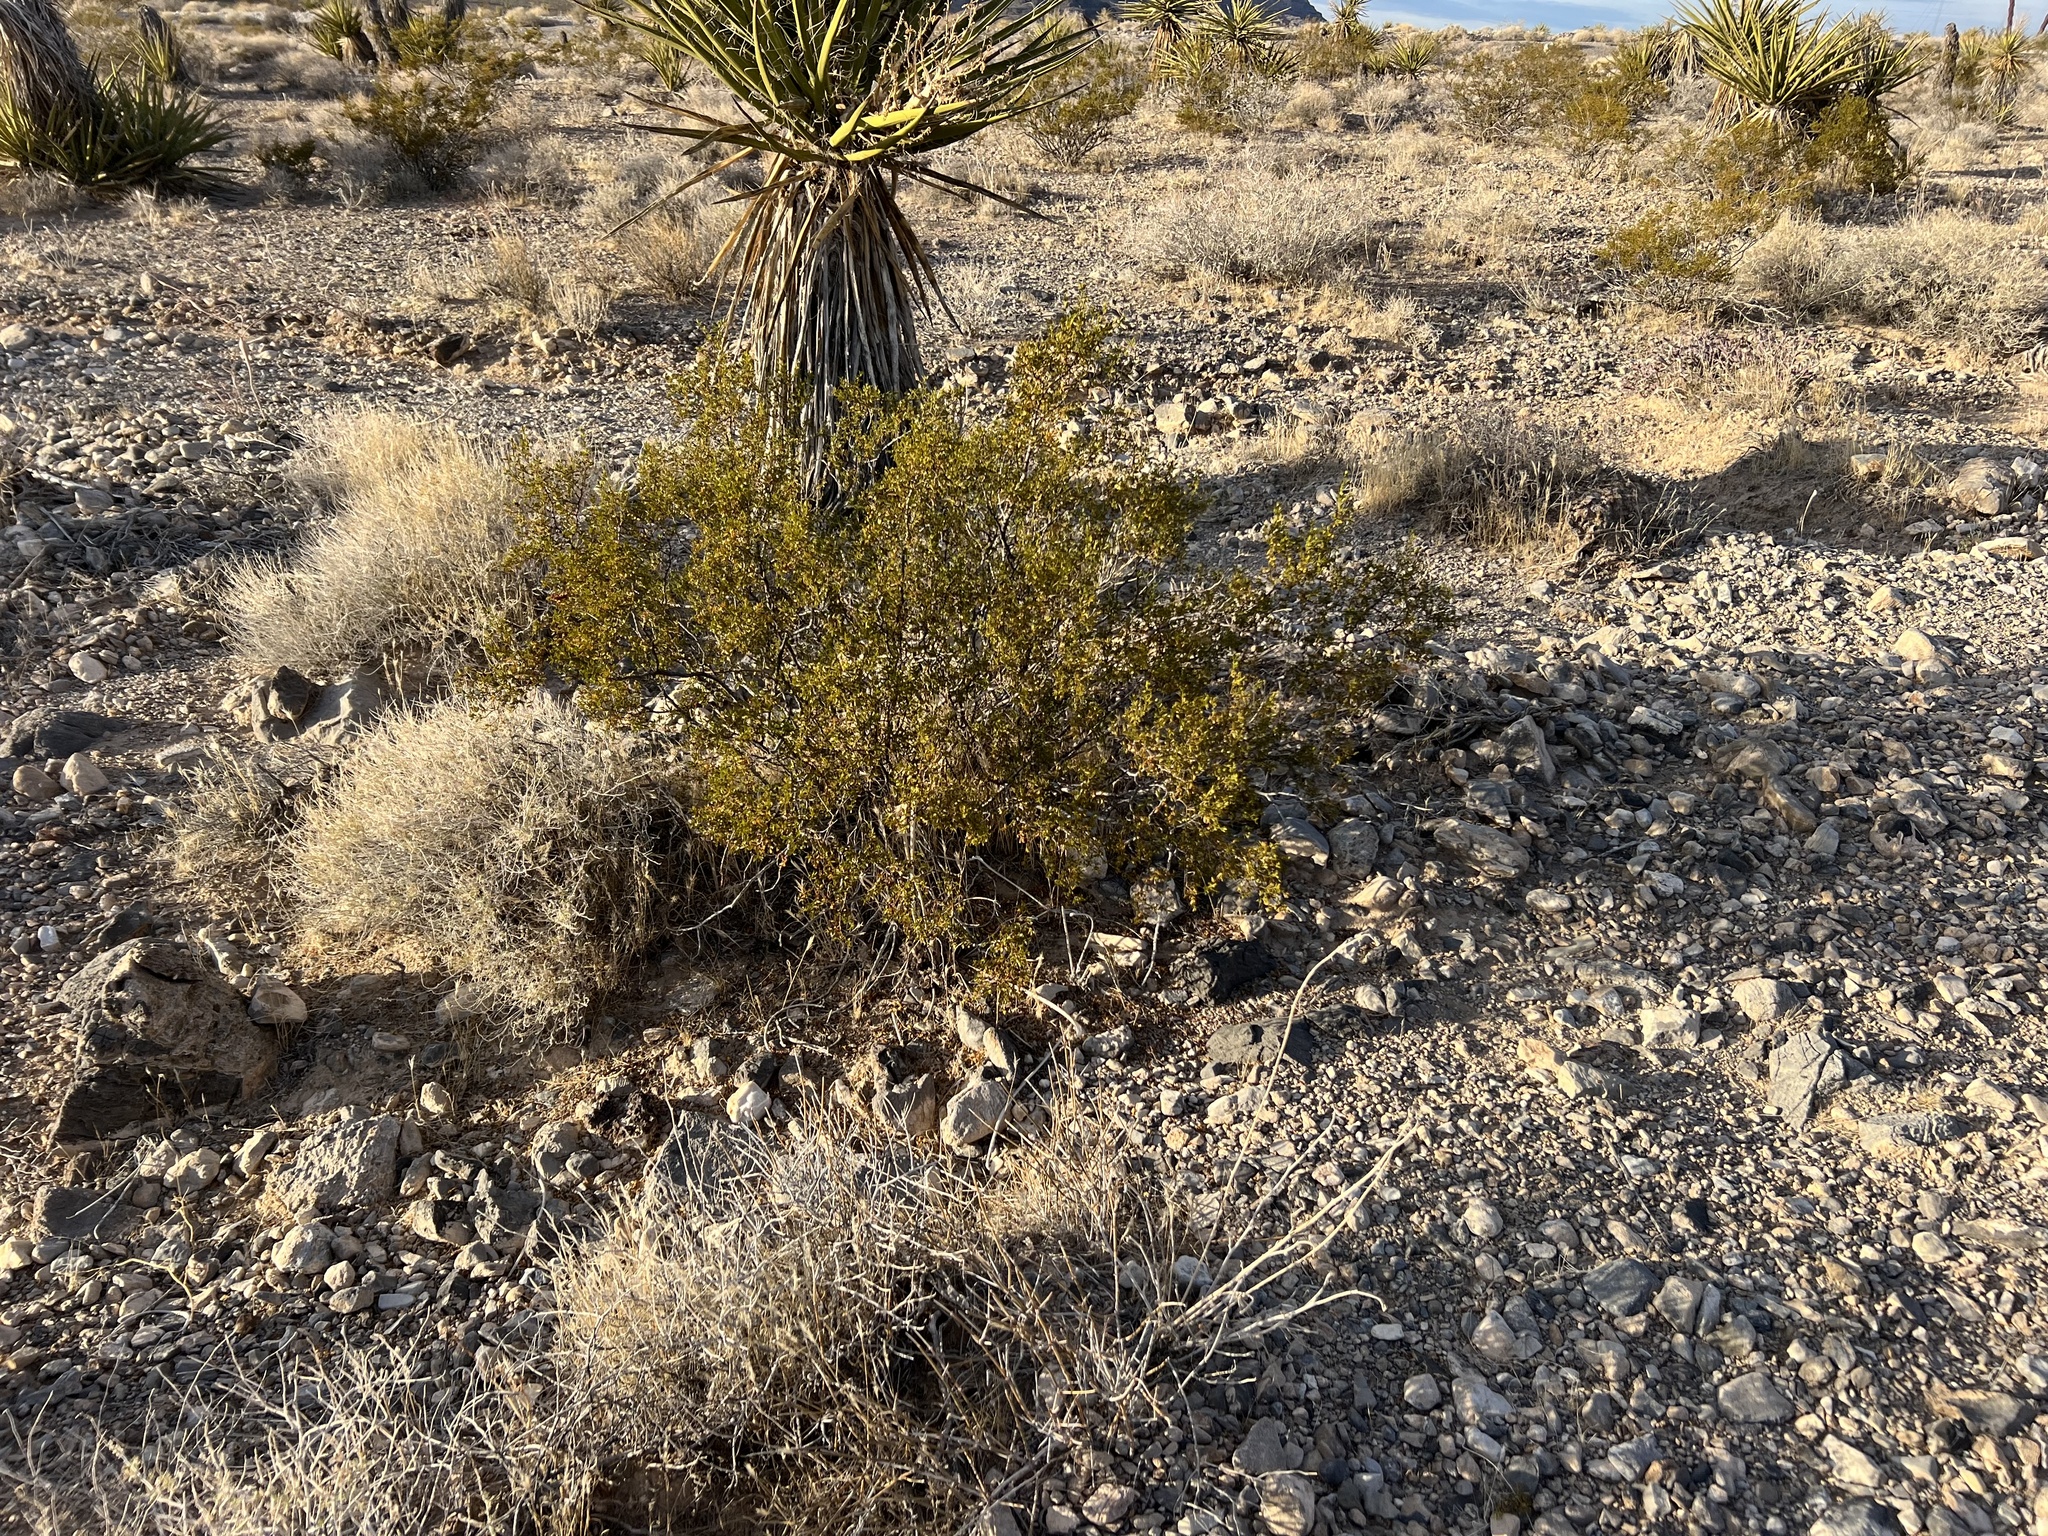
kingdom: Plantae
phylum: Tracheophyta
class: Magnoliopsida
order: Zygophyllales
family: Zygophyllaceae
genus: Larrea
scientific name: Larrea tridentata
